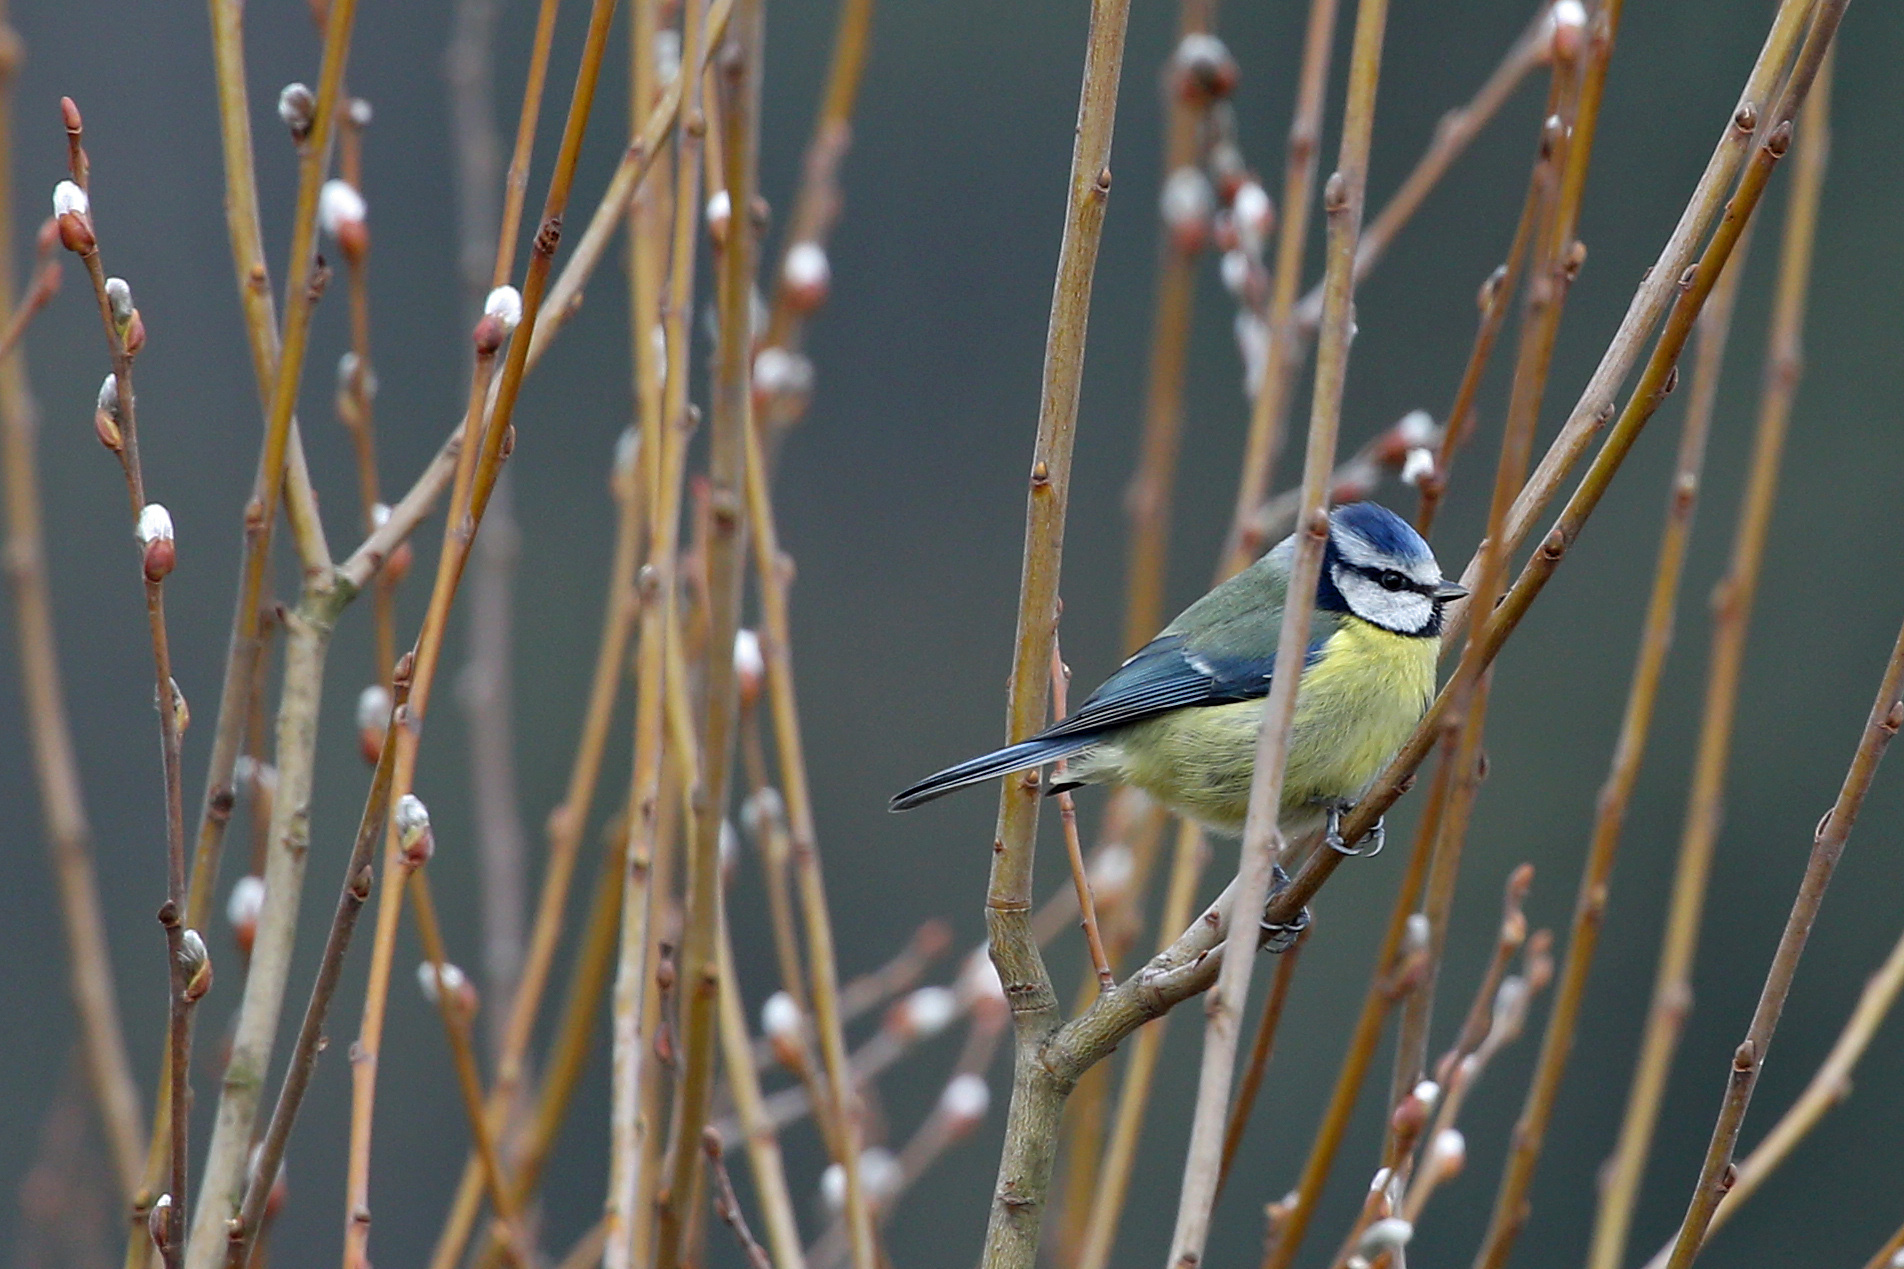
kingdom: Animalia
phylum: Chordata
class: Aves
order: Passeriformes
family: Paridae
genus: Cyanistes
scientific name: Cyanistes caeruleus
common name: Eurasian blue tit
